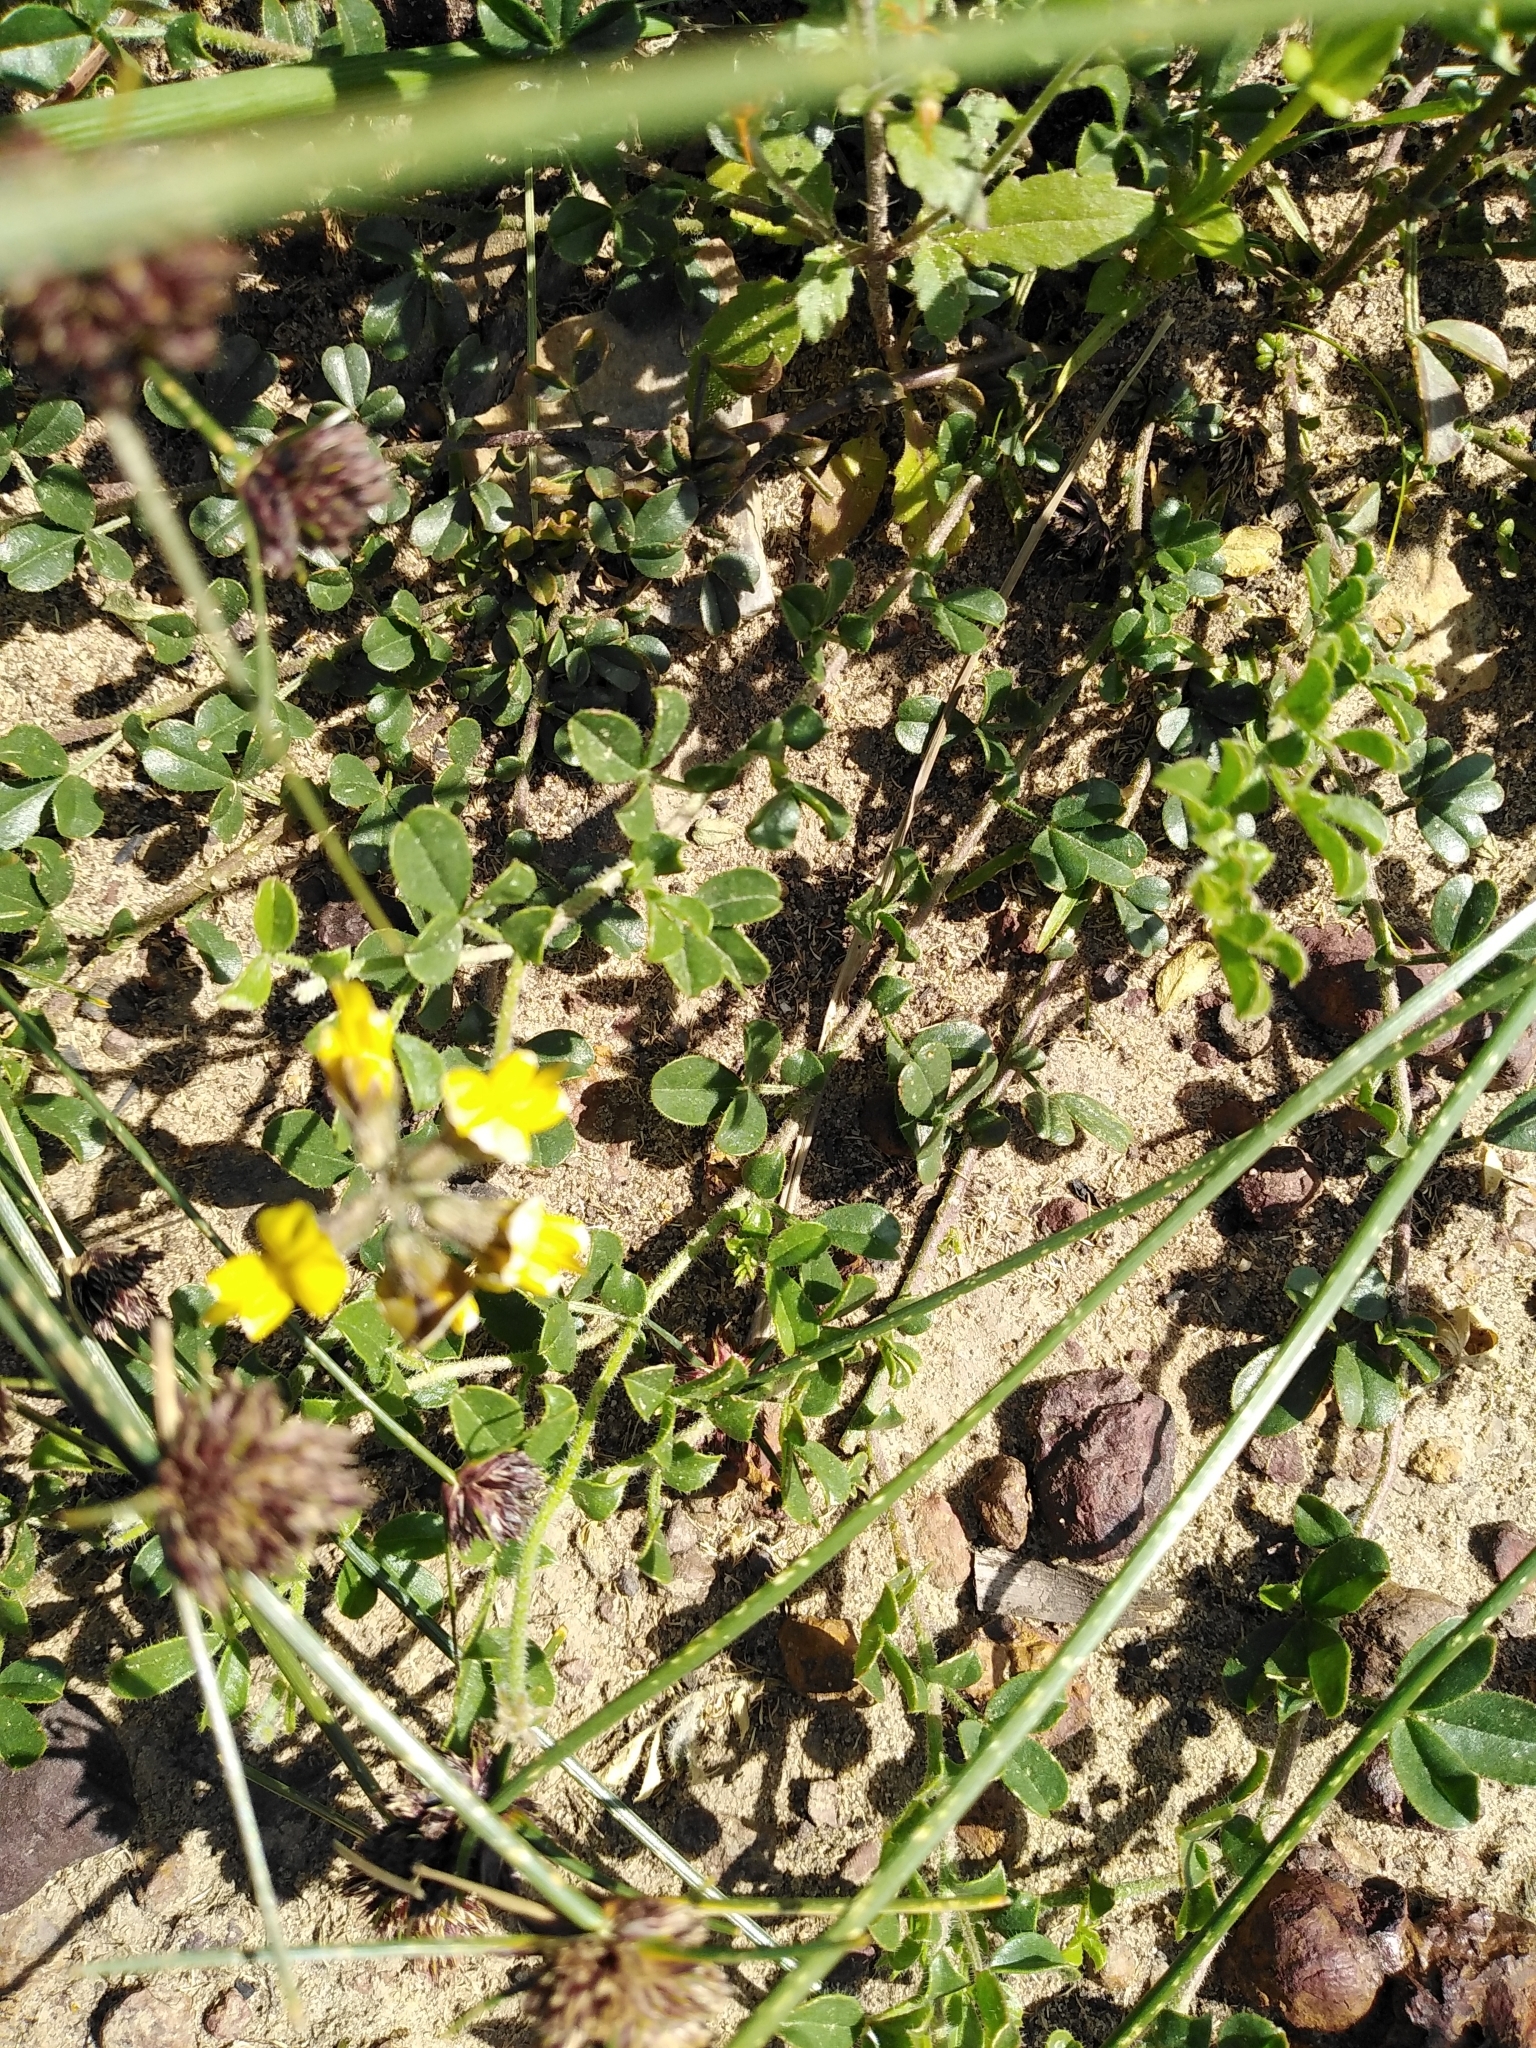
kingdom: Plantae
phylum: Tracheophyta
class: Magnoliopsida
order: Fabales
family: Fabaceae
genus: Lotononis
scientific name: Lotononis umbellata
